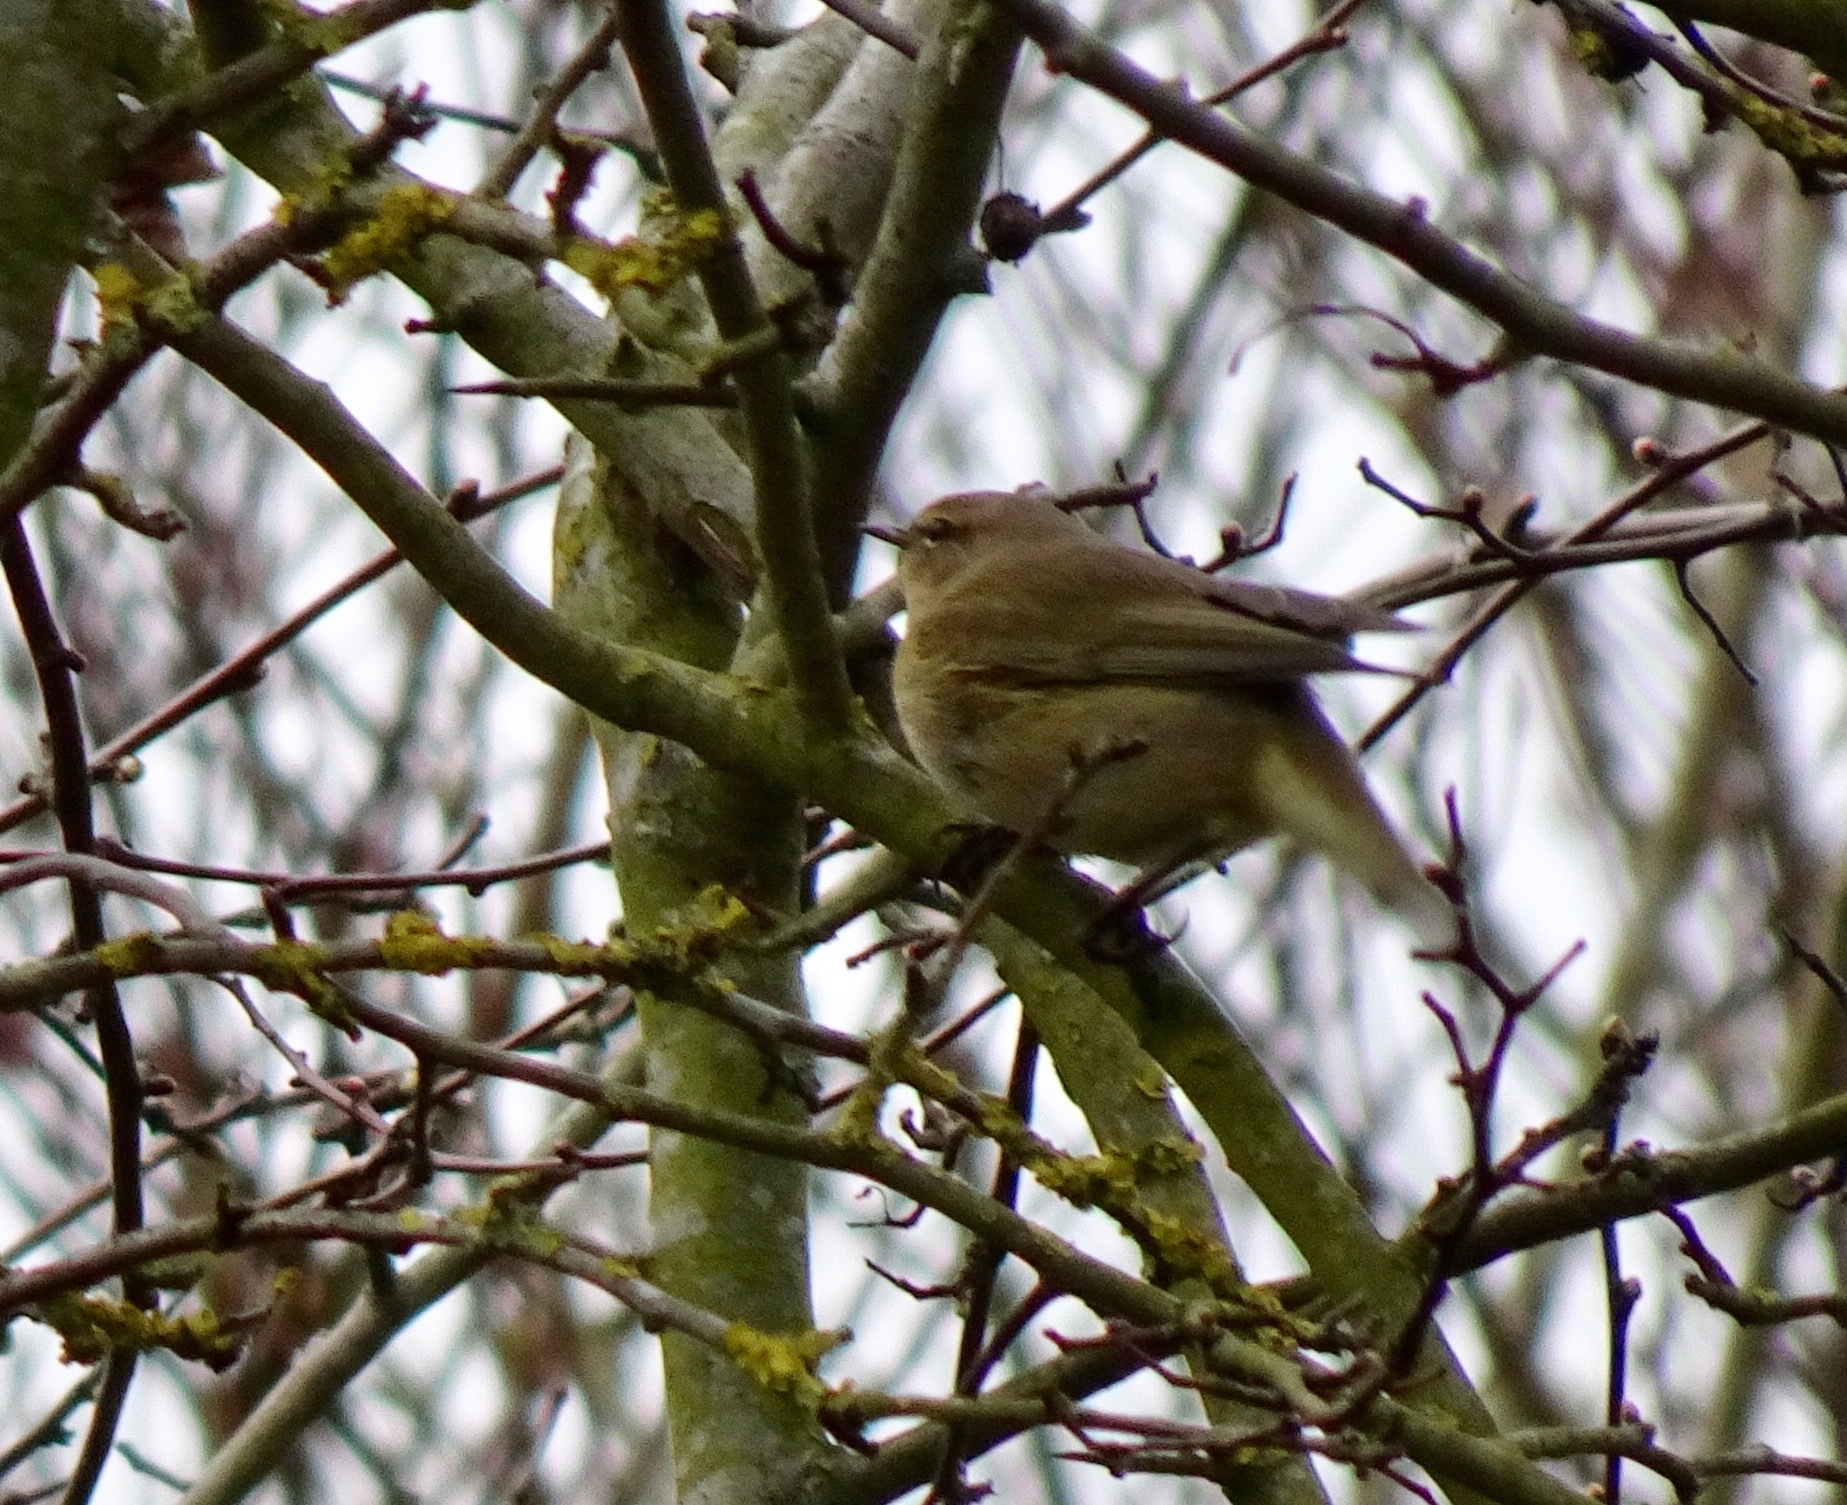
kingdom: Animalia
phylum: Chordata
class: Aves
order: Passeriformes
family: Phylloscopidae
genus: Phylloscopus
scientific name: Phylloscopus collybita
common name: Common chiffchaff
